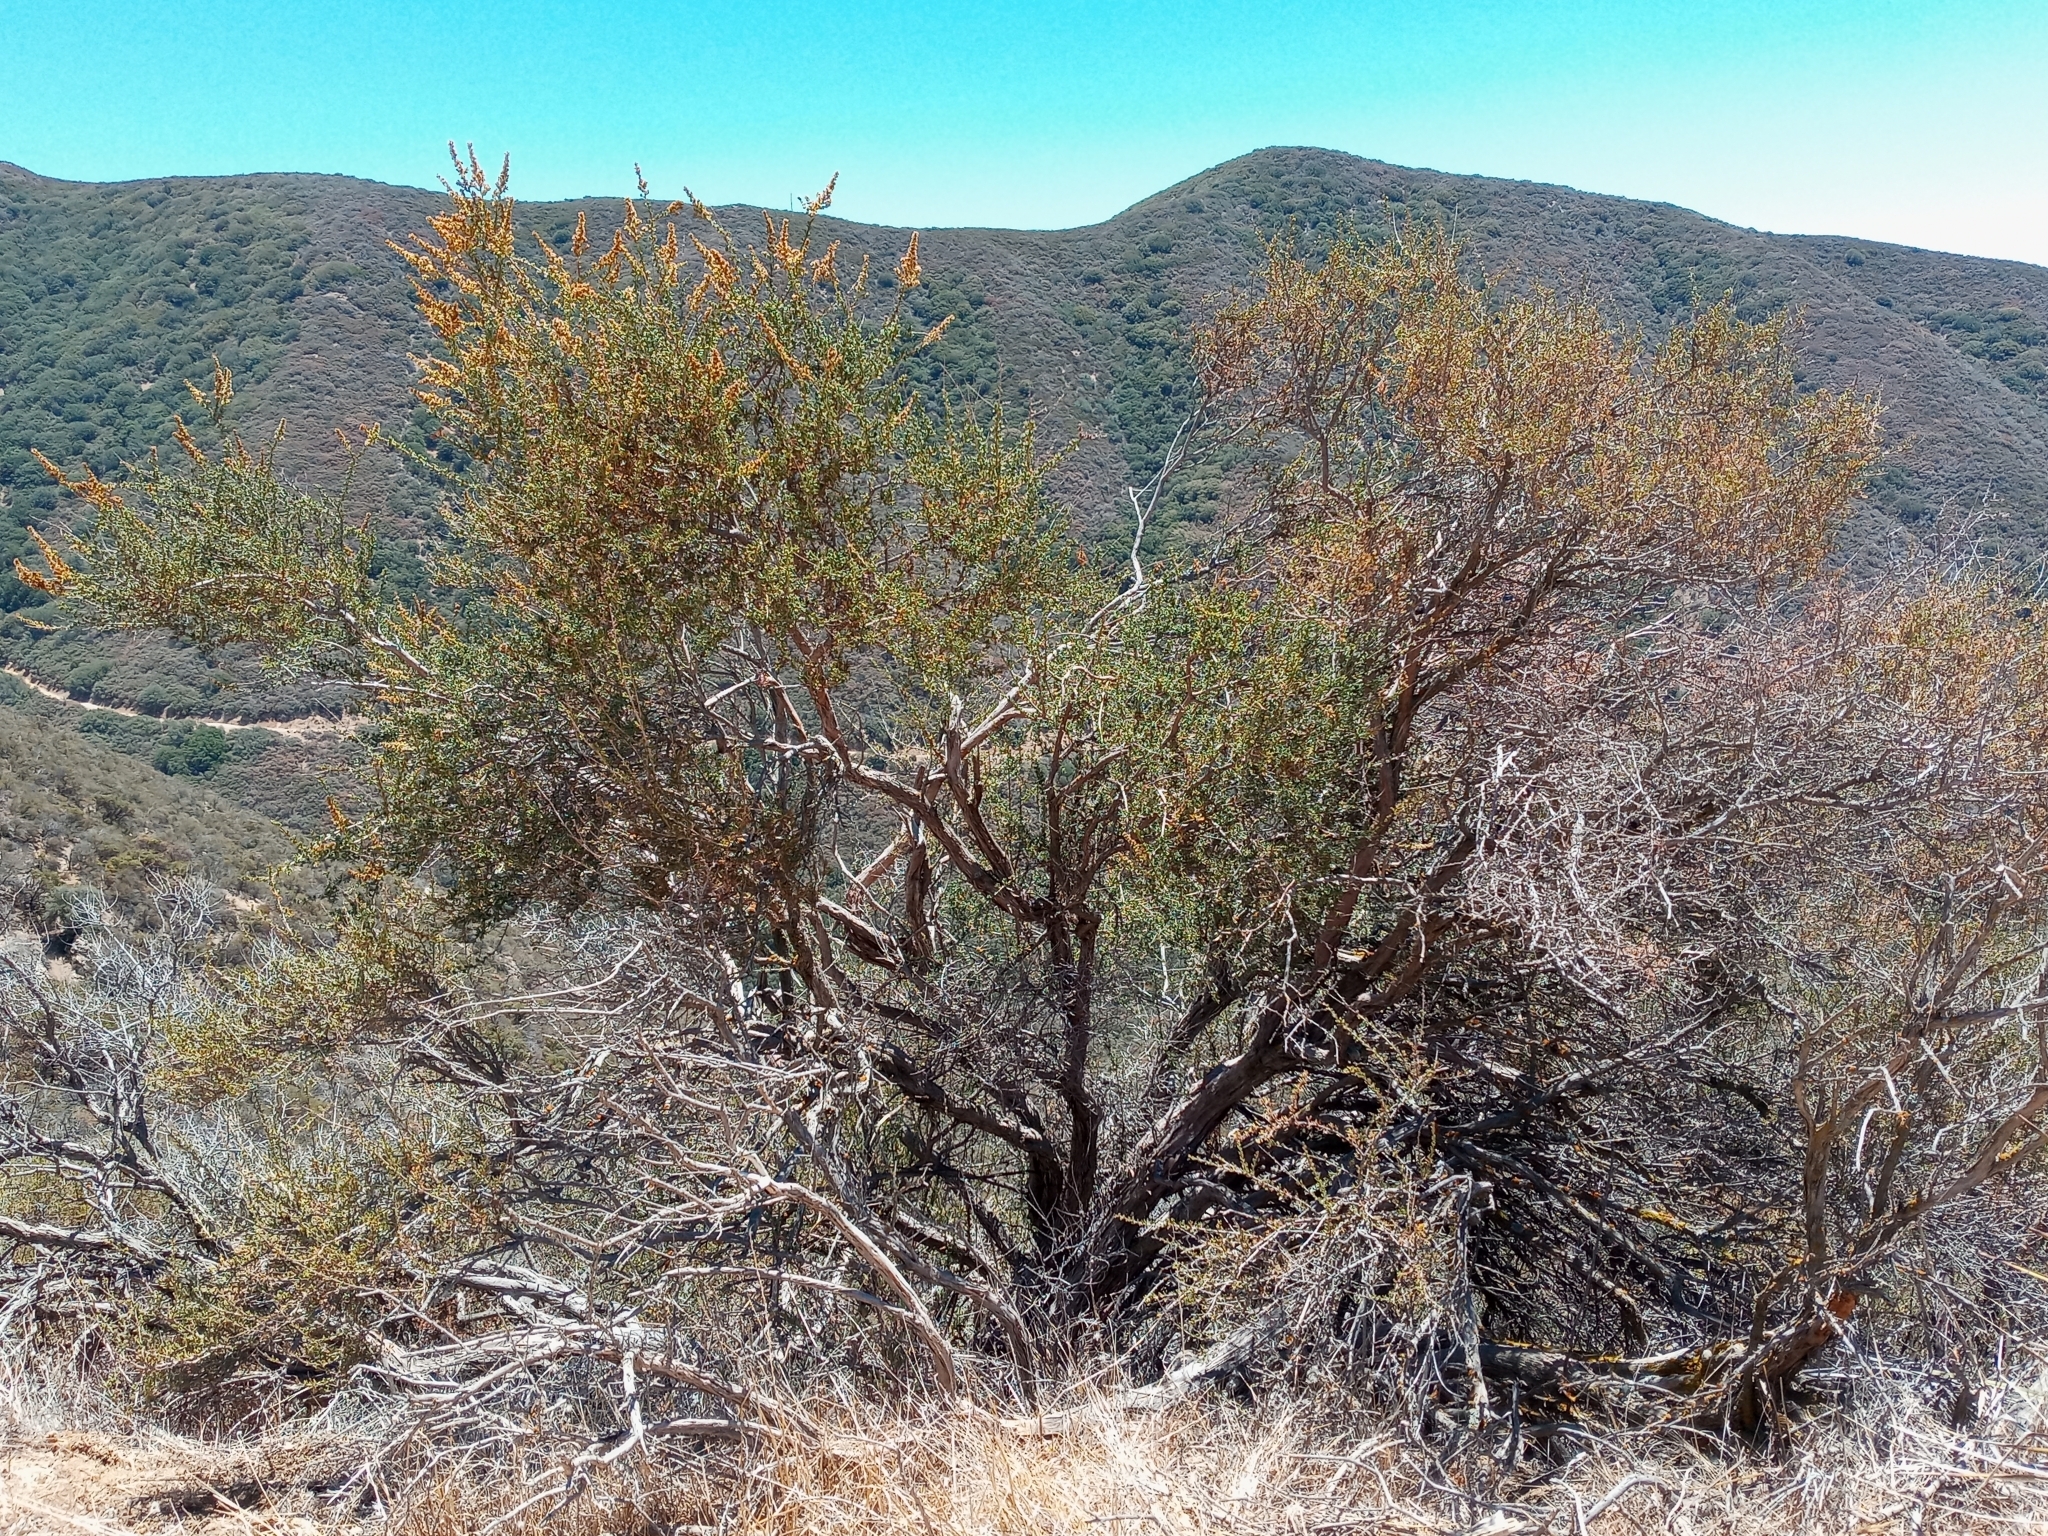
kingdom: Plantae
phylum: Tracheophyta
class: Magnoliopsida
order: Rosales
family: Rosaceae
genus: Adenostoma
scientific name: Adenostoma fasciculatum
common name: Chamise
